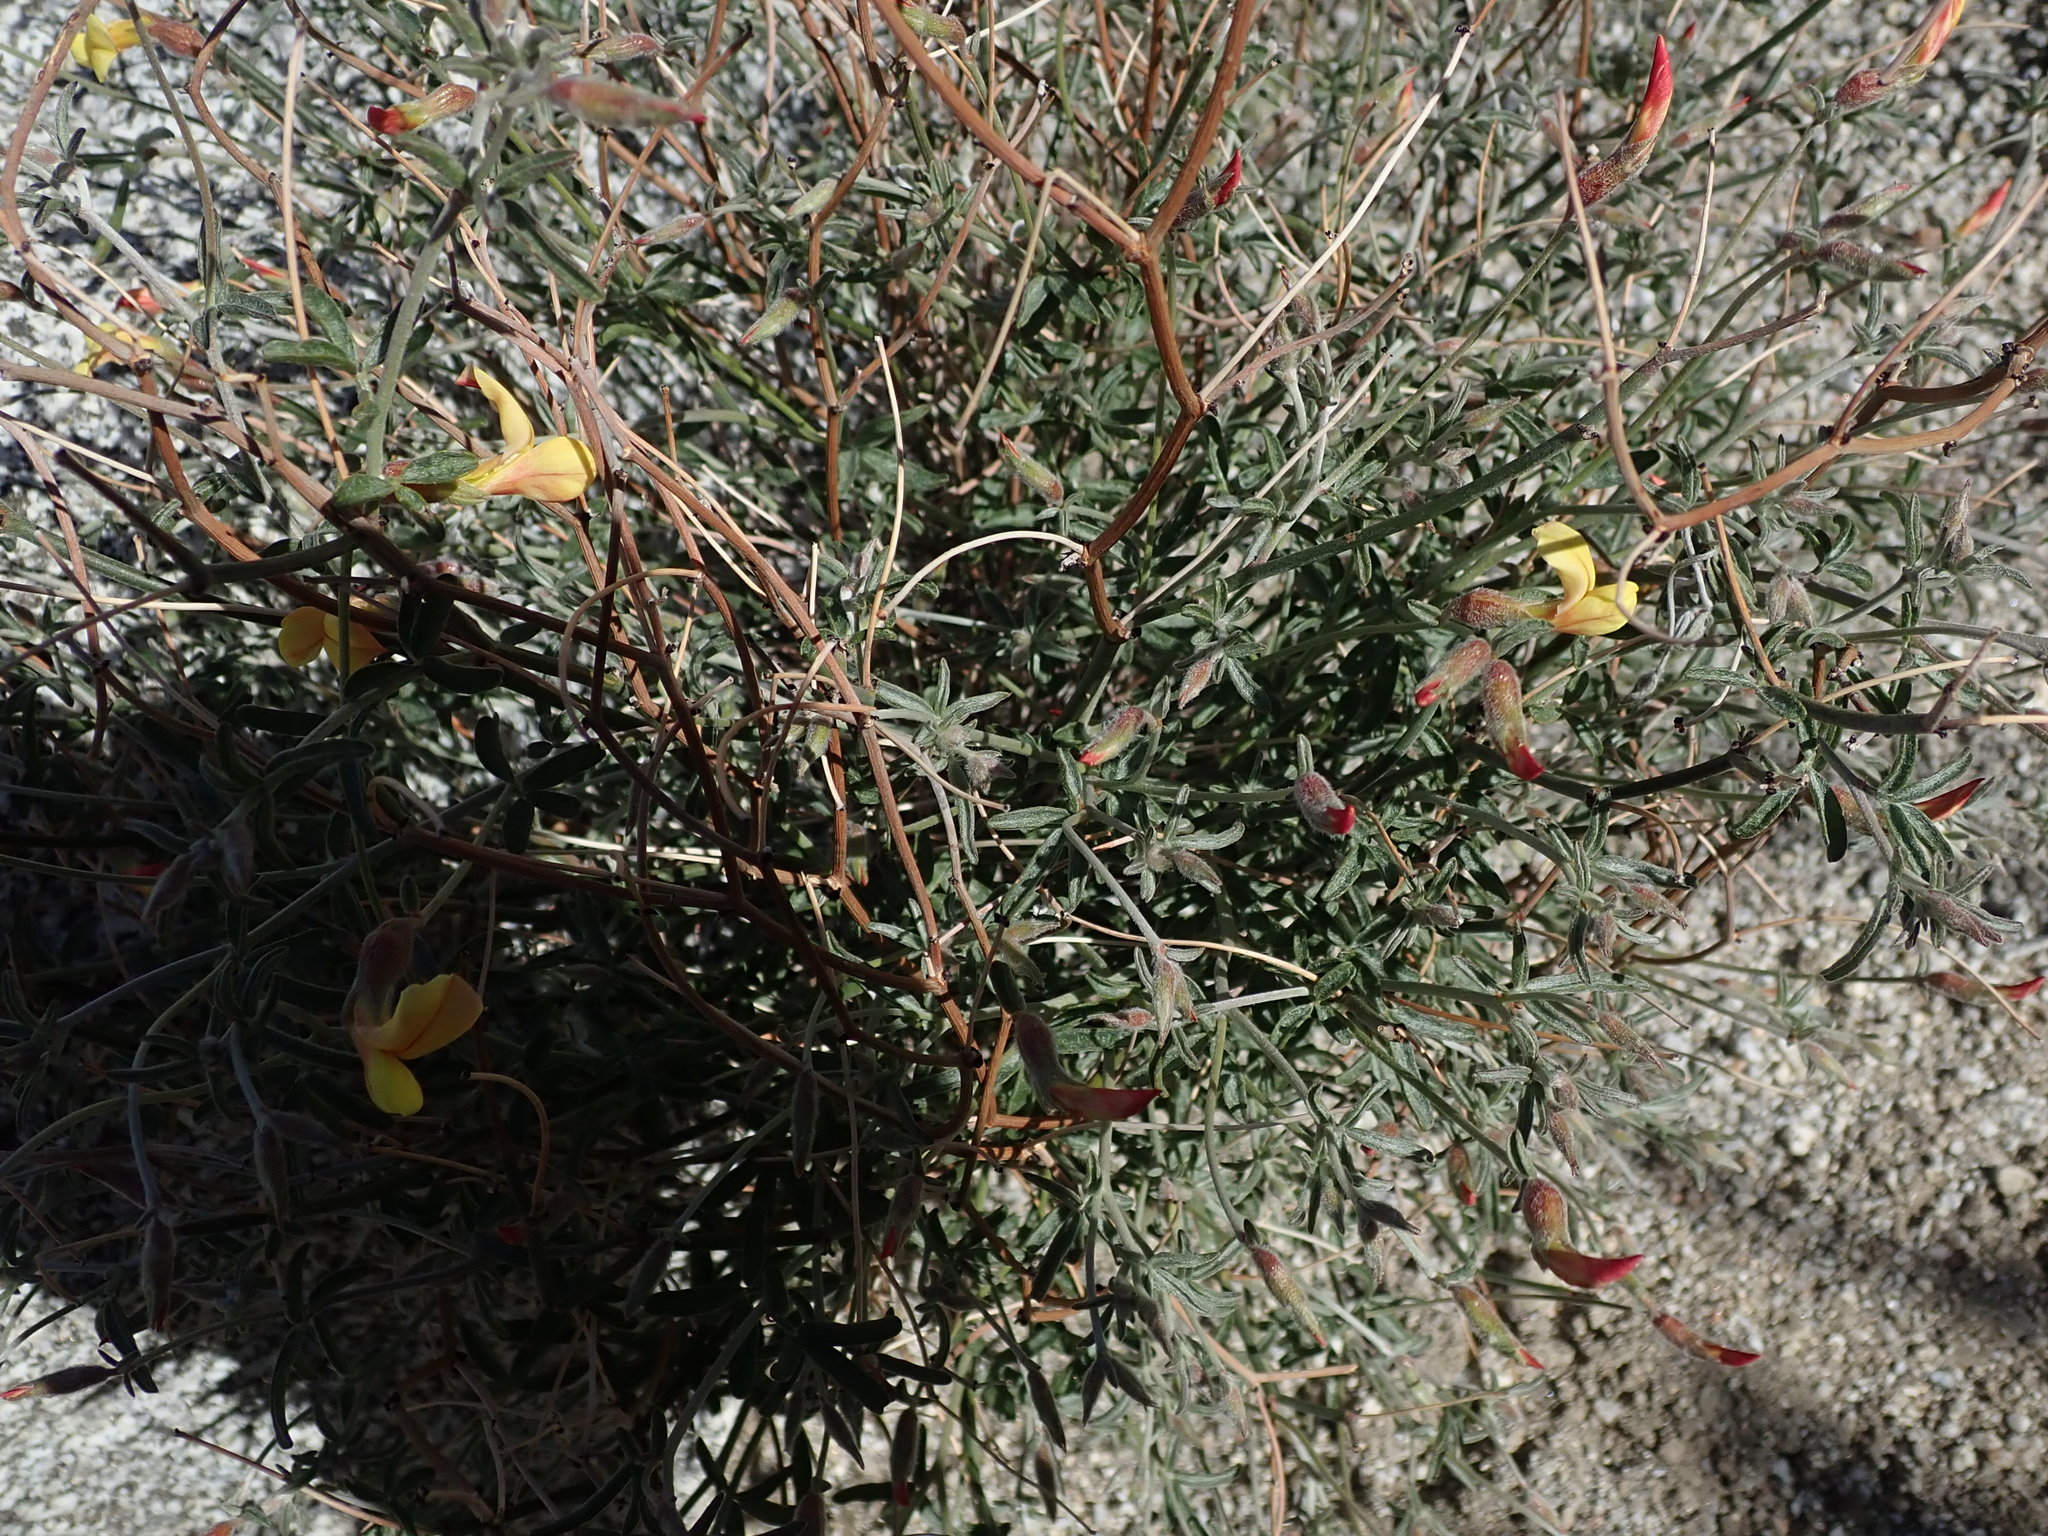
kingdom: Plantae
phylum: Tracheophyta
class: Magnoliopsida
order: Fabales
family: Fabaceae
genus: Acmispon
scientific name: Acmispon rigidus
